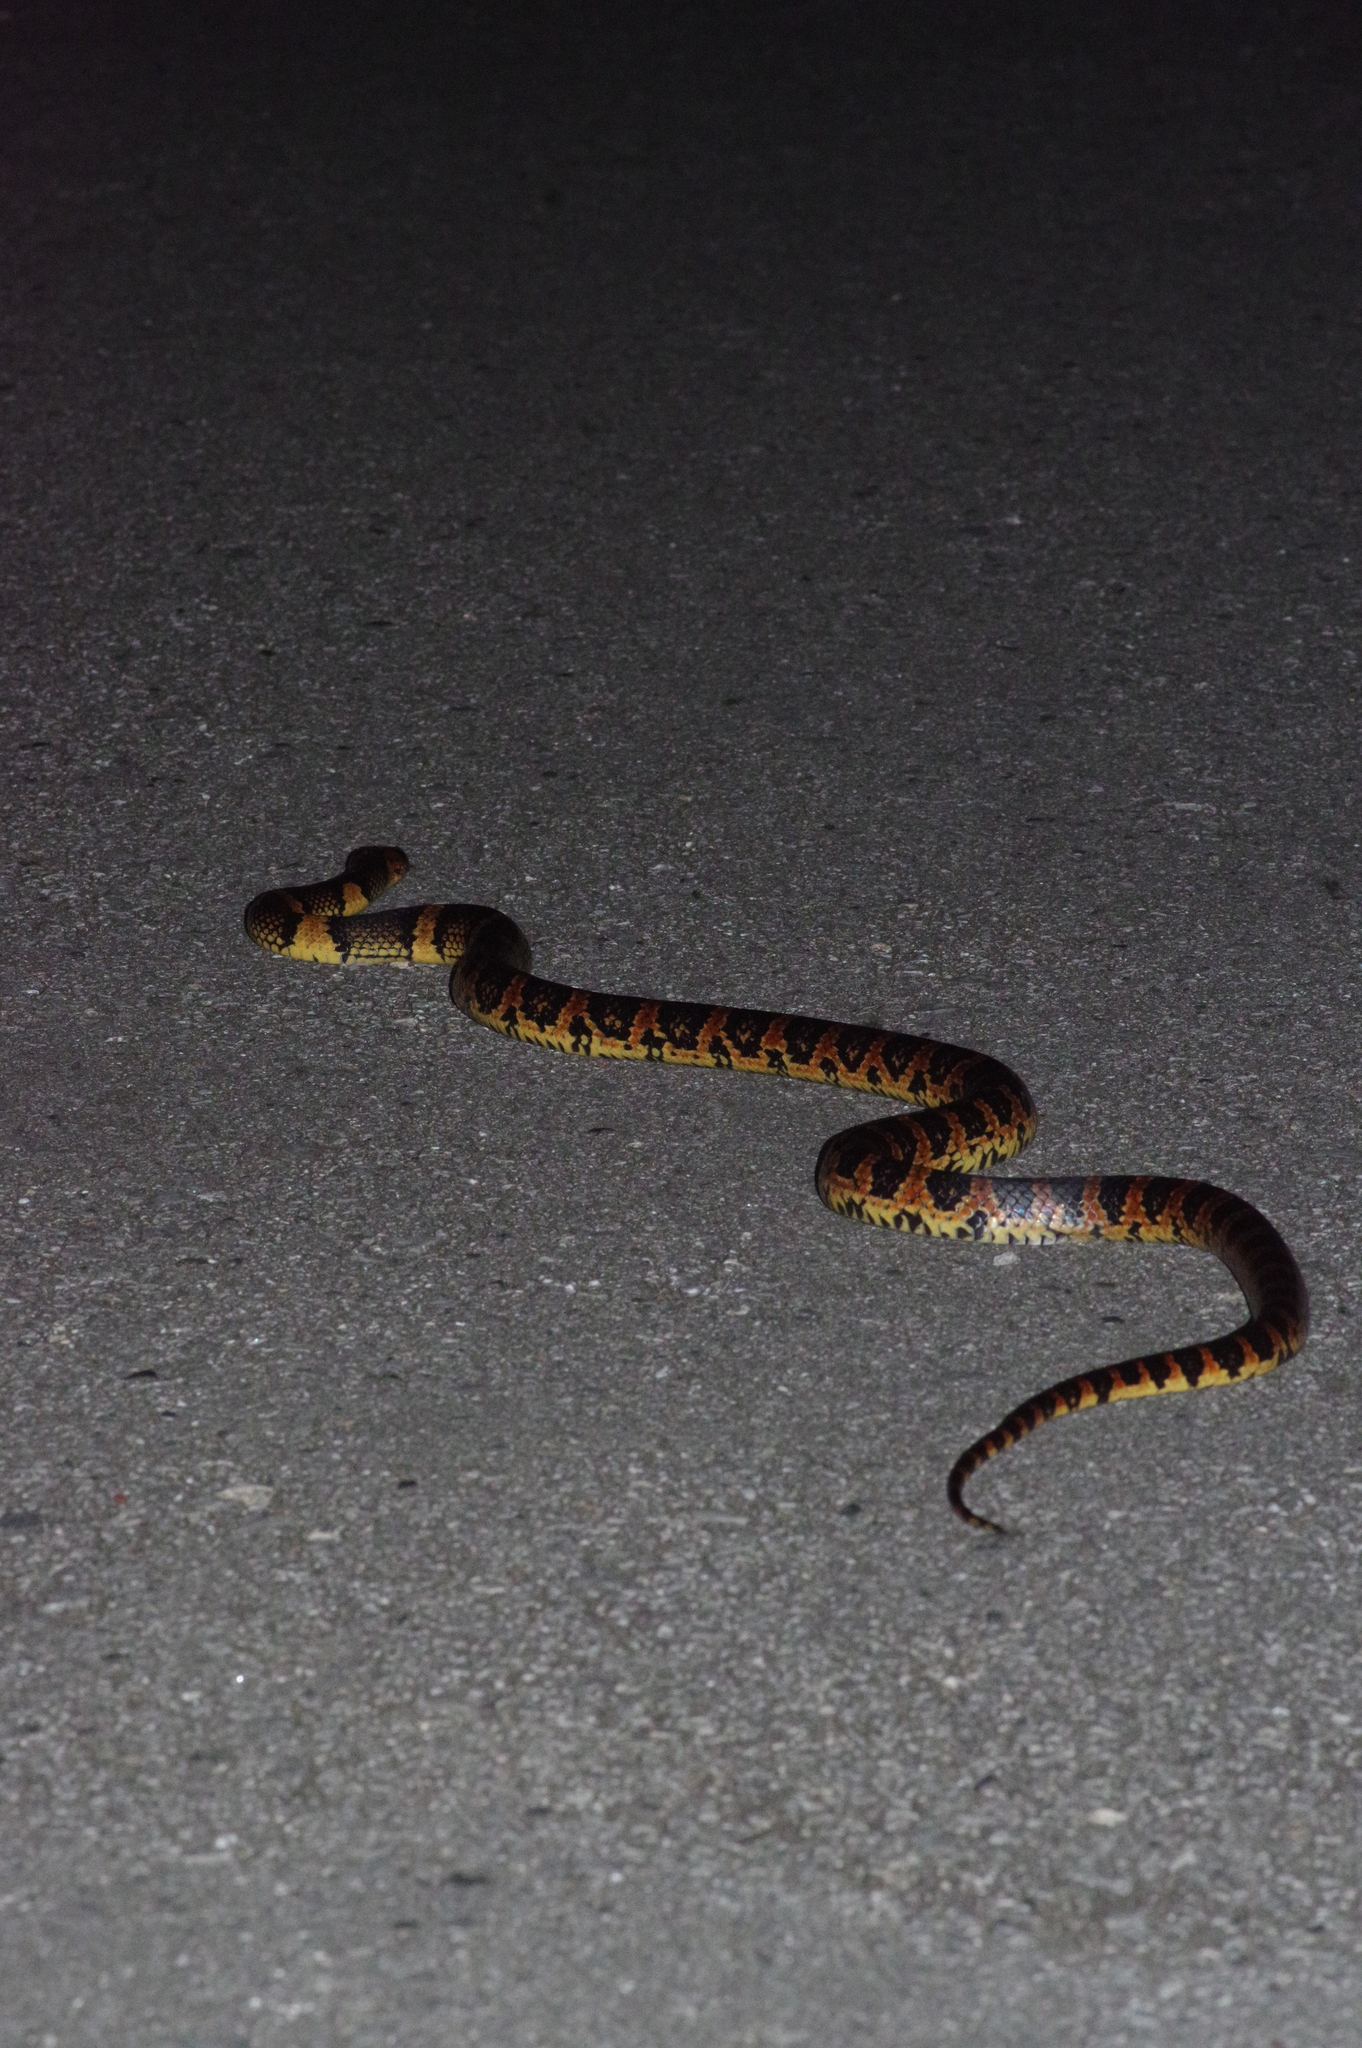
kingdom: Animalia
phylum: Chordata
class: Squamata
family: Colubridae
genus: Lycodon
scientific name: Lycodon semicarinatus
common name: Loo-choo big-tooth snake
